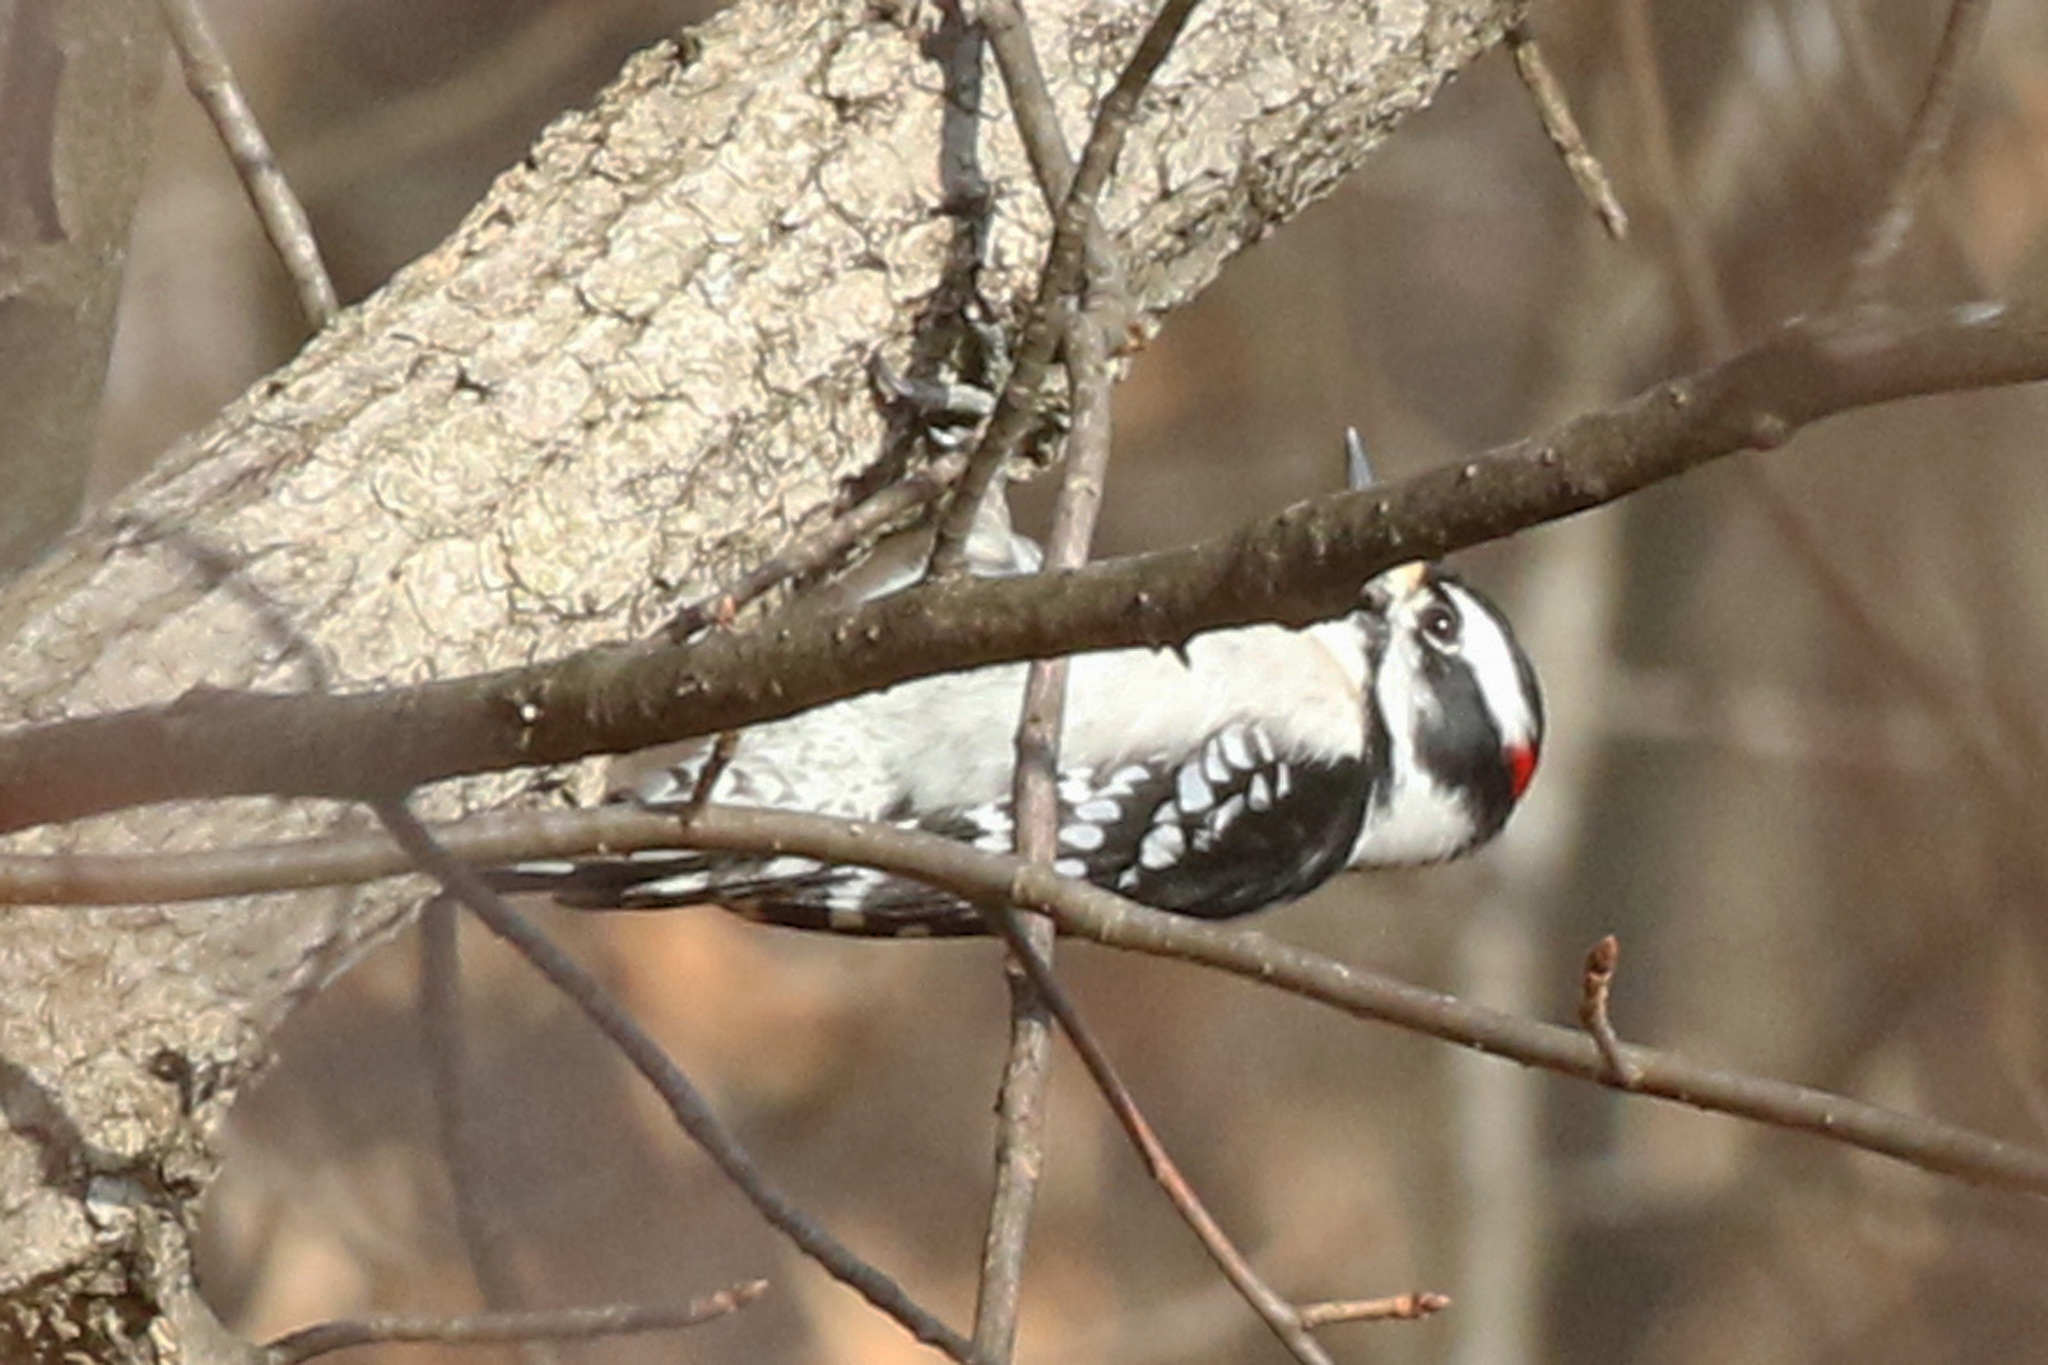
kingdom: Animalia
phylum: Chordata
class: Aves
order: Piciformes
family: Picidae
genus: Dryobates
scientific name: Dryobates pubescens
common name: Downy woodpecker
